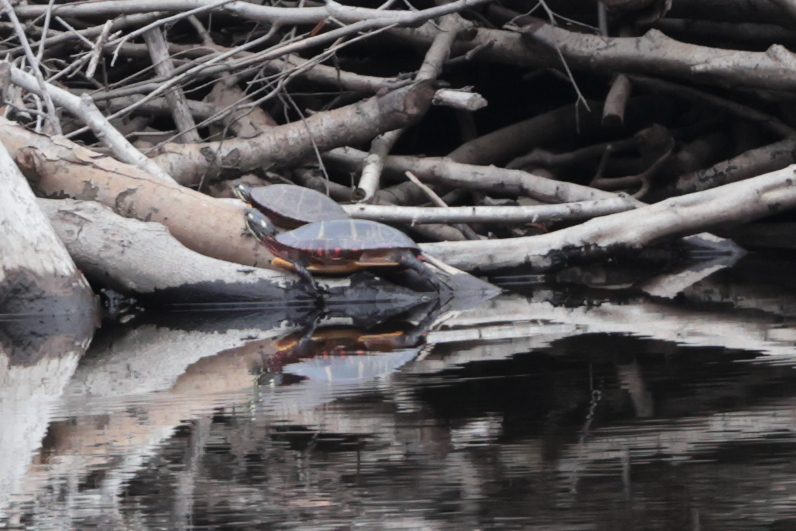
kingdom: Animalia
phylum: Chordata
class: Testudines
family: Emydidae
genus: Chrysemys
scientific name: Chrysemys picta
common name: Painted turtle
